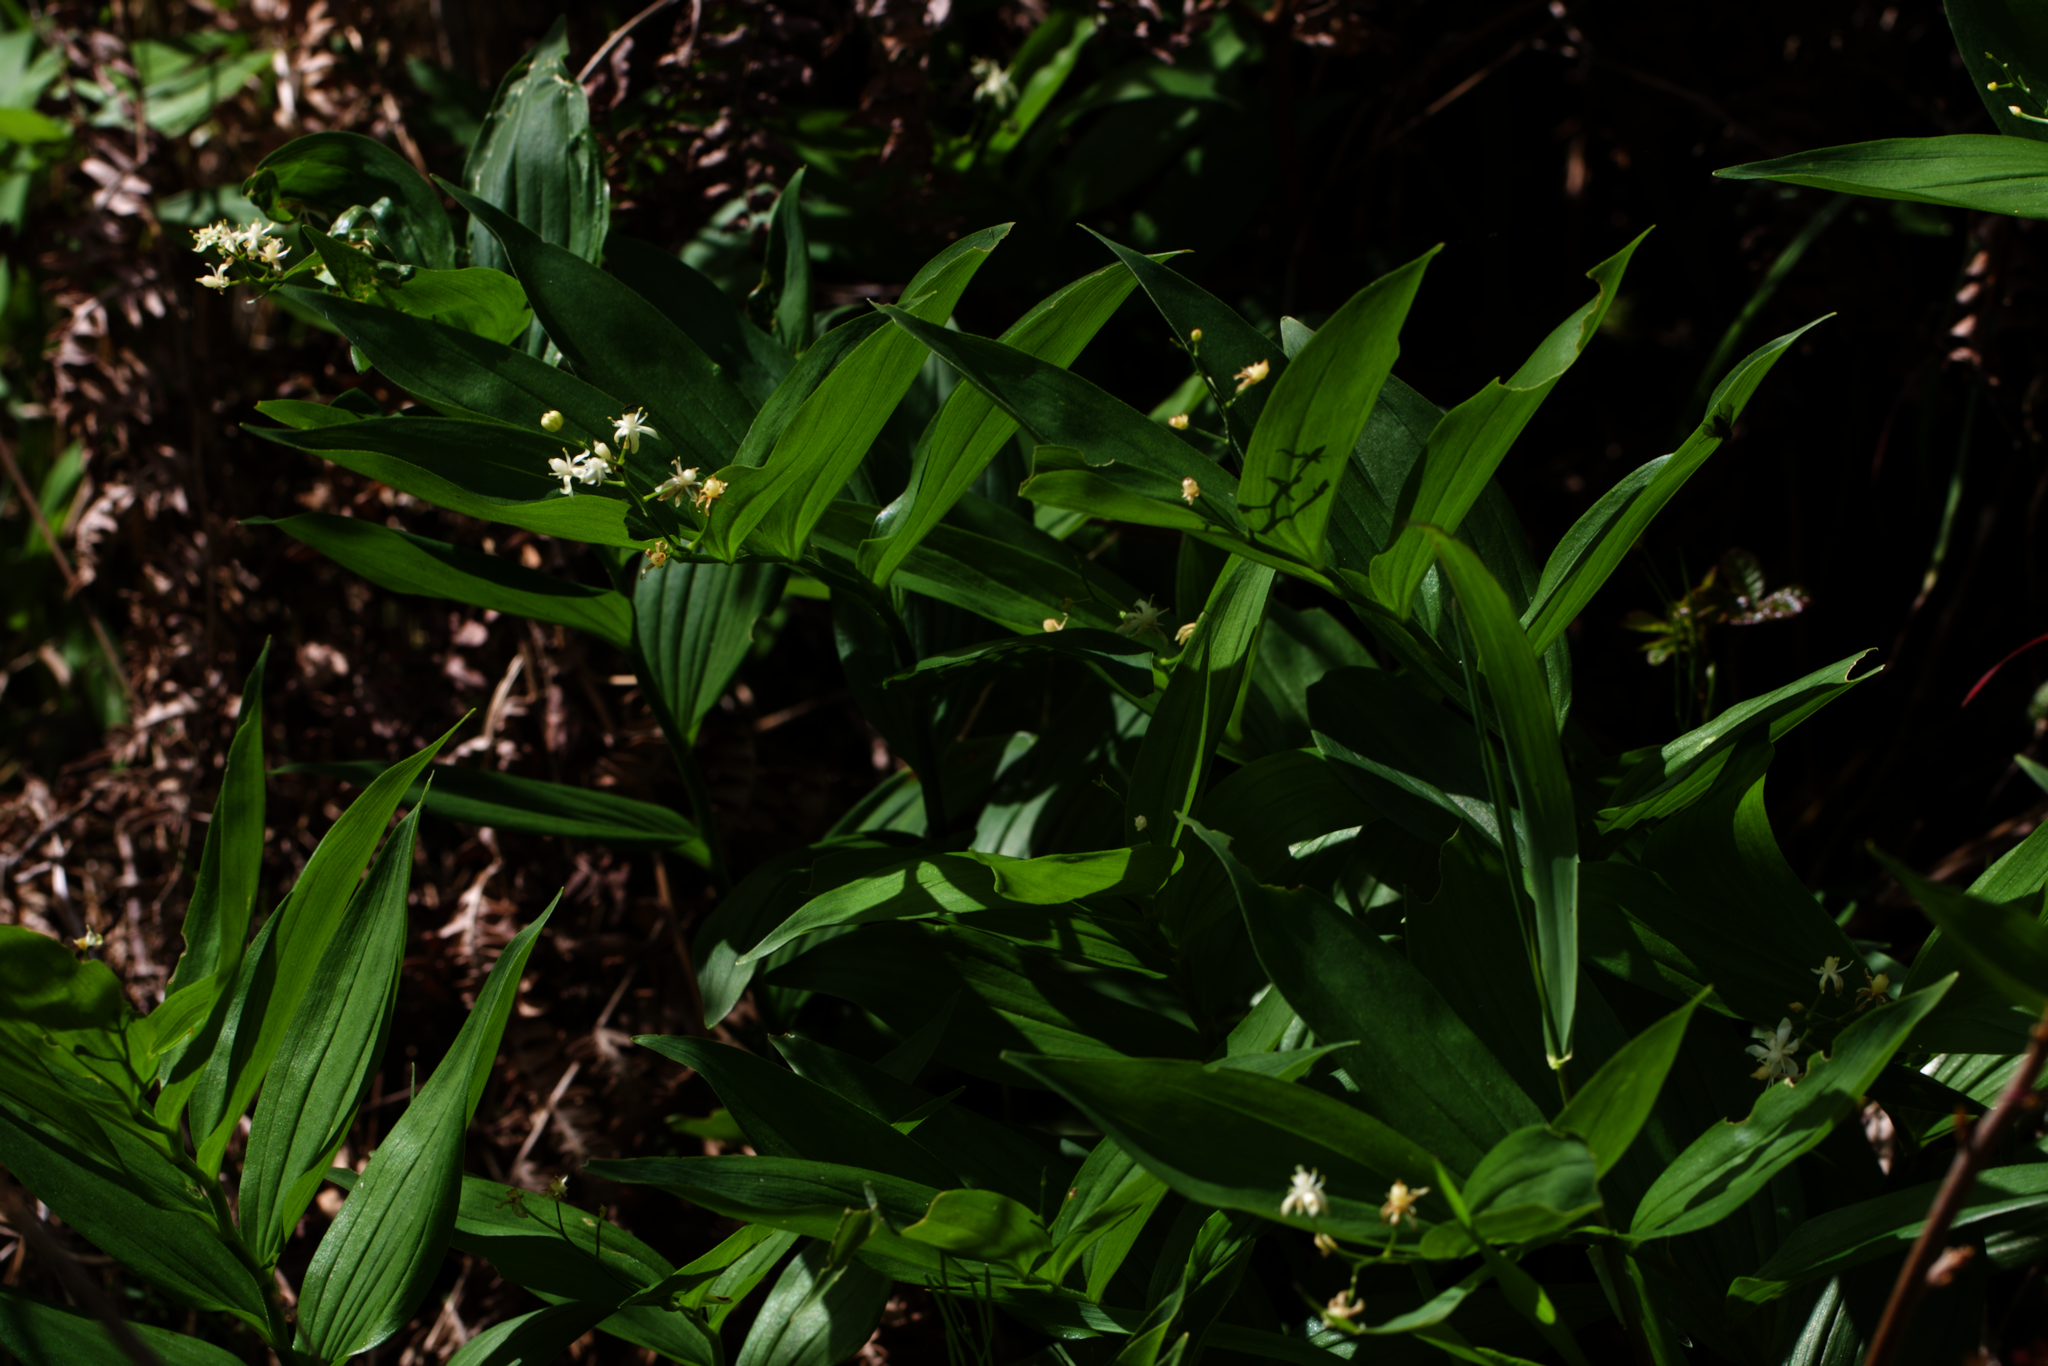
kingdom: Plantae
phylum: Tracheophyta
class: Liliopsida
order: Asparagales
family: Asparagaceae
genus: Maianthemum
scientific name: Maianthemum stellatum
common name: Little false solomon's seal
